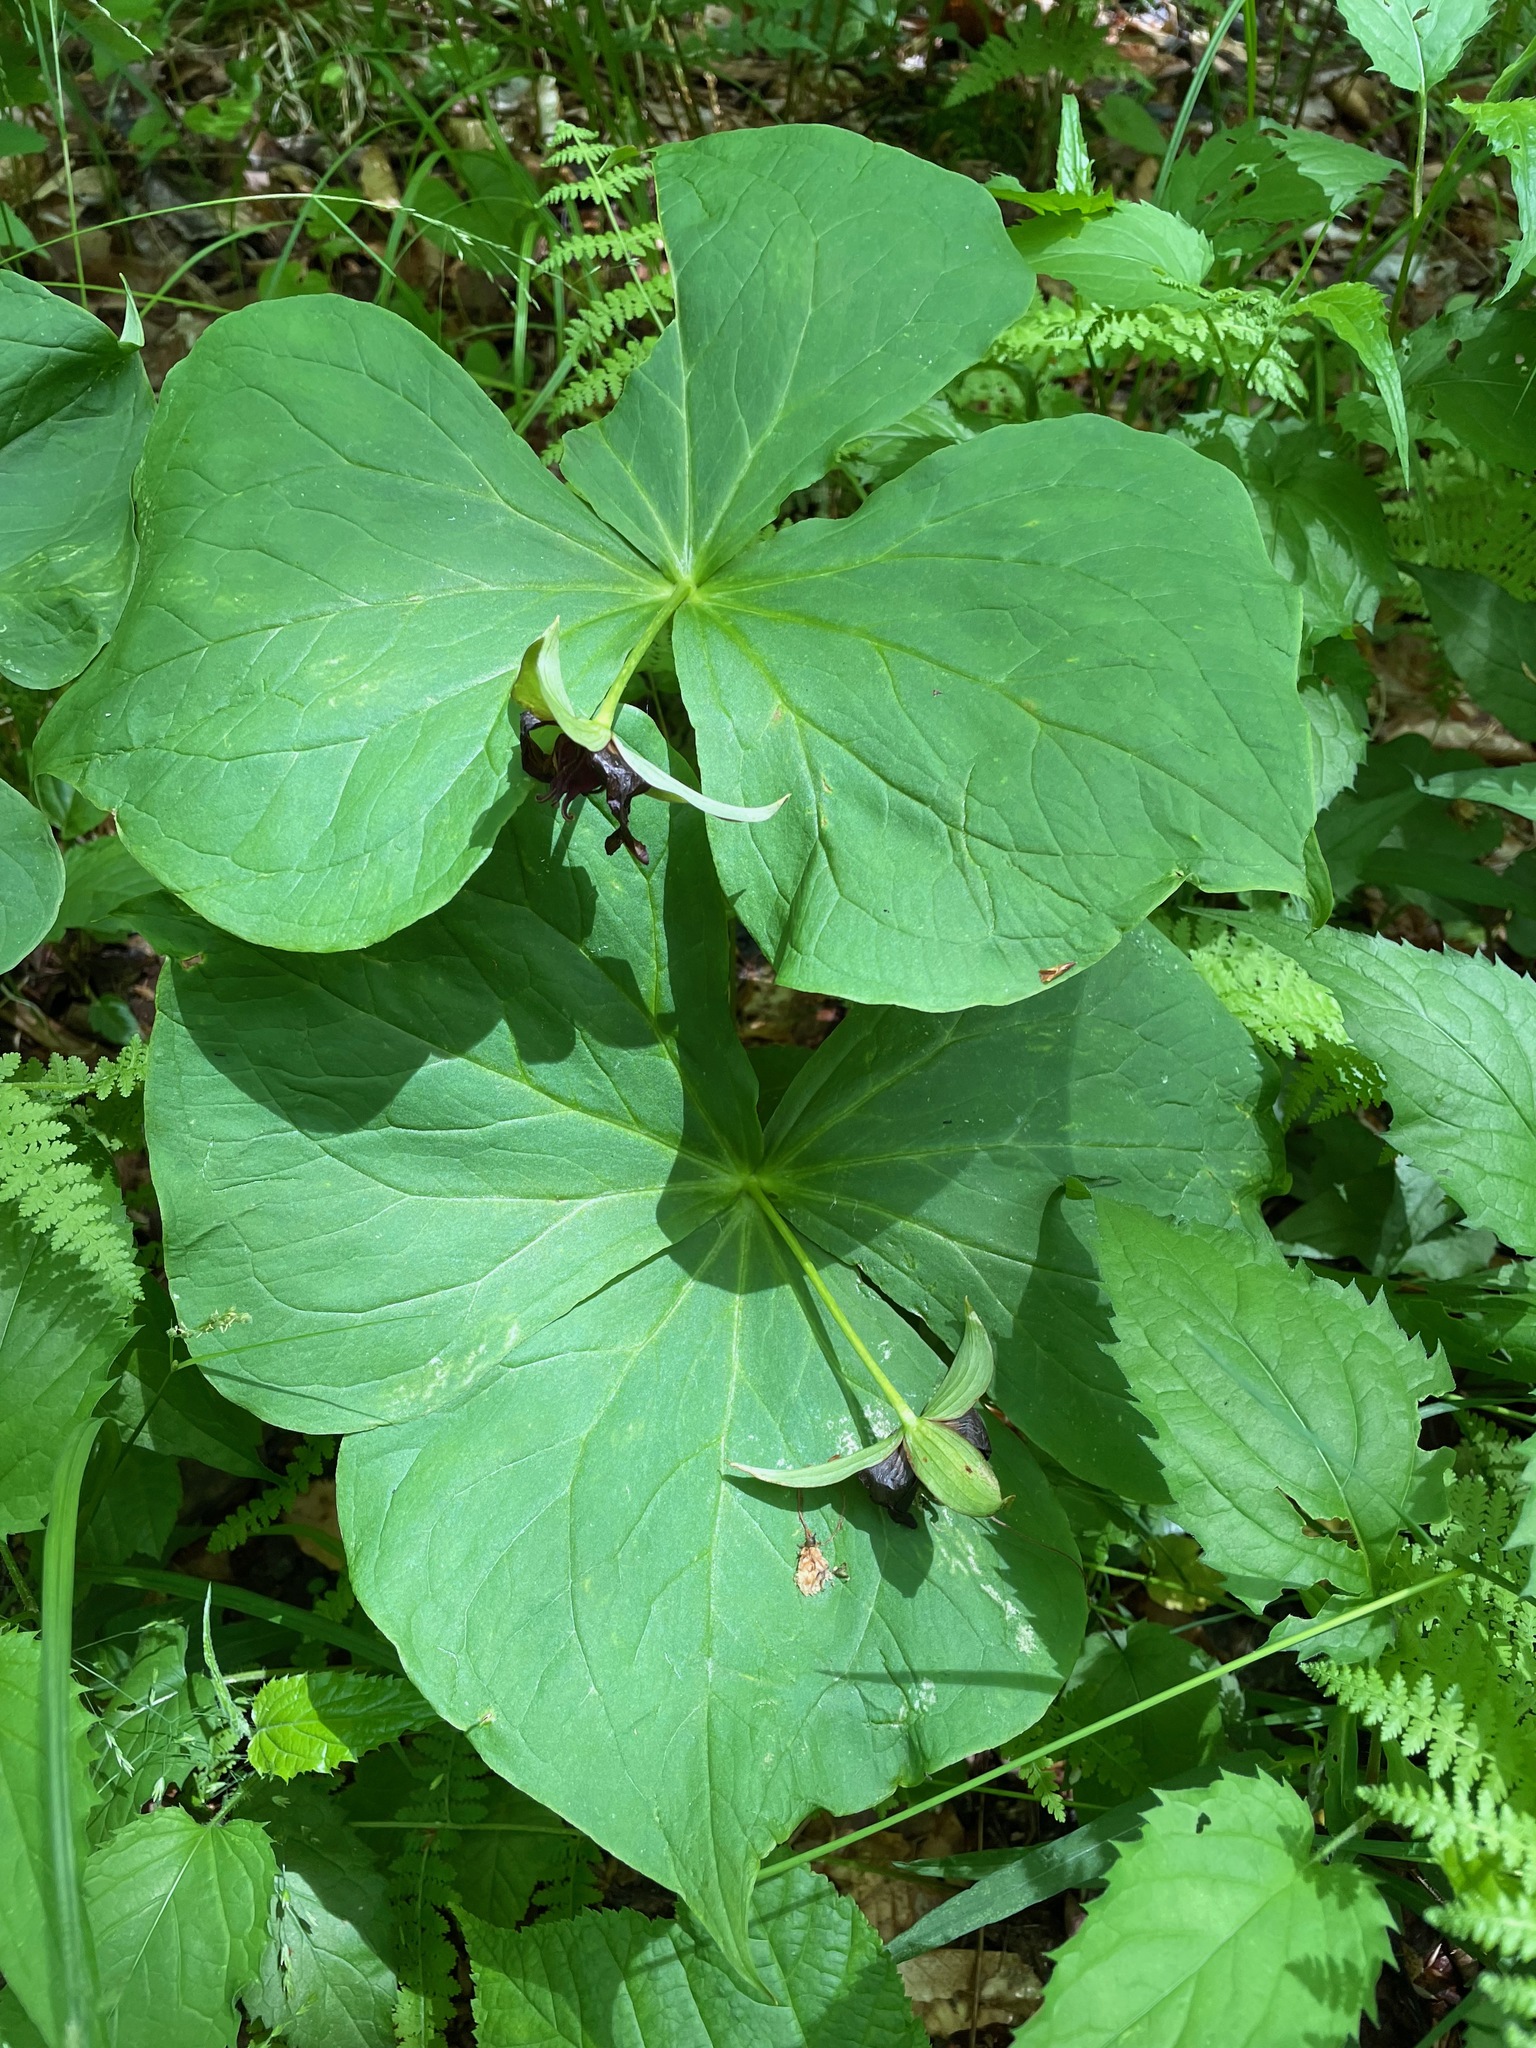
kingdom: Plantae
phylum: Tracheophyta
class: Liliopsida
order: Liliales
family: Melanthiaceae
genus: Trillium
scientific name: Trillium erectum
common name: Purple trillium
